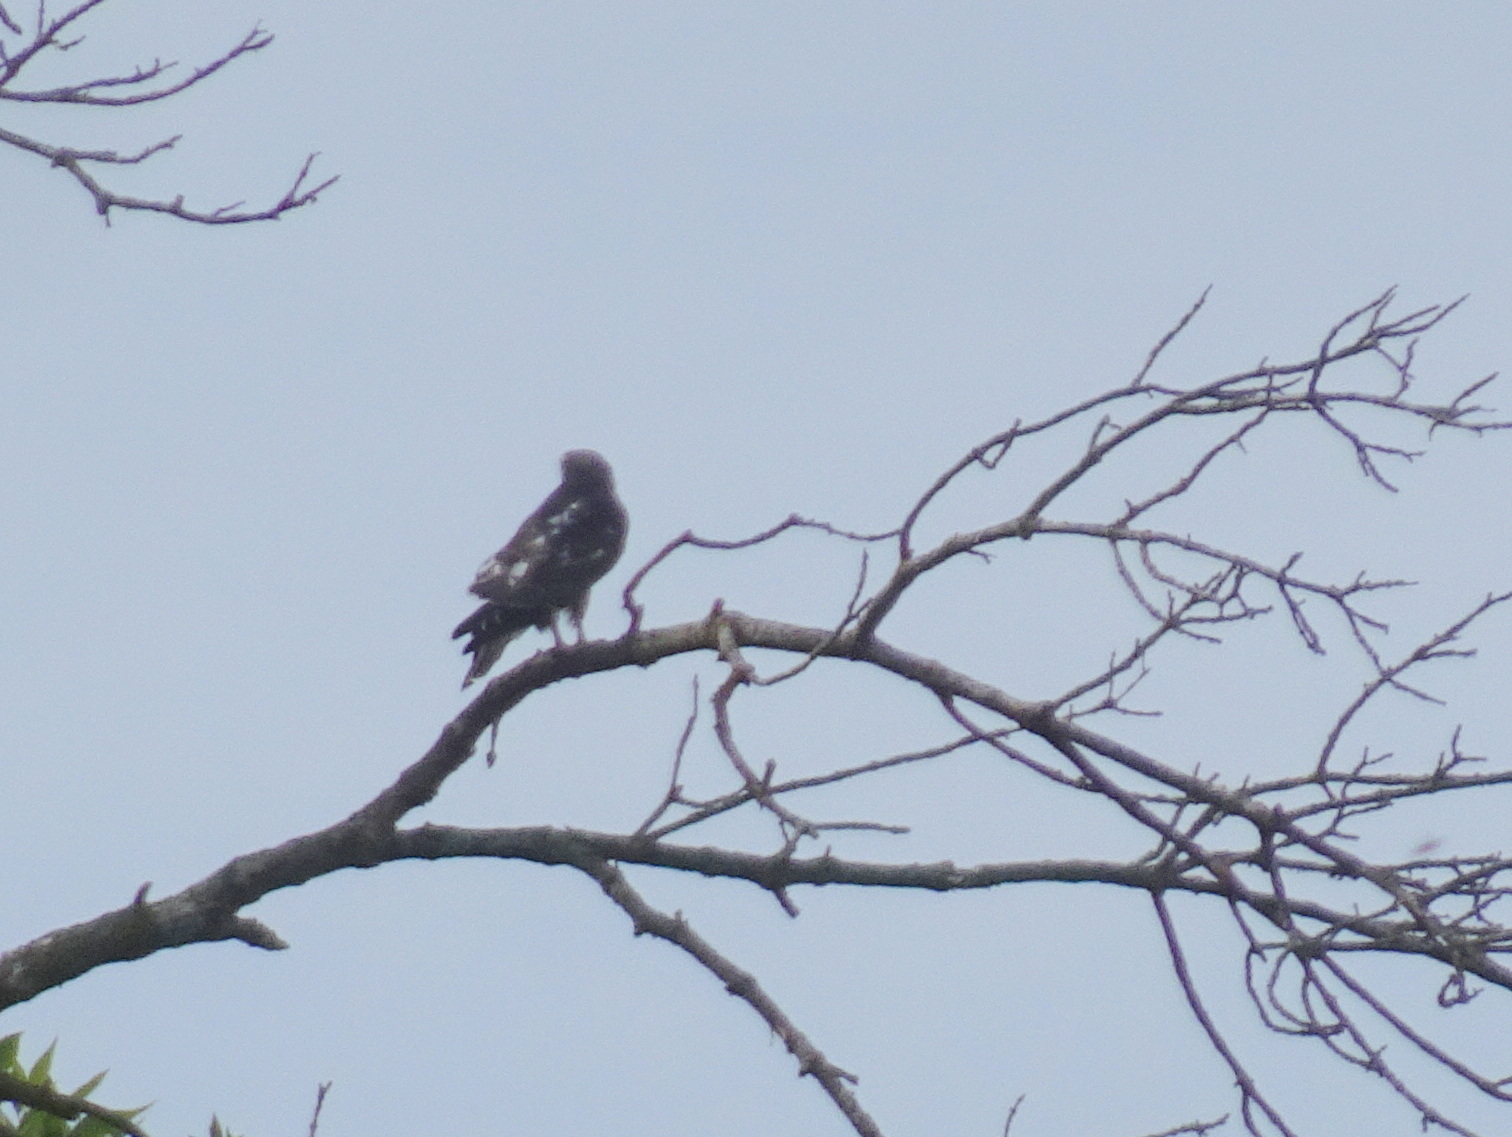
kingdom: Animalia
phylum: Chordata
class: Aves
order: Accipitriformes
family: Accipitridae
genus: Ictinia
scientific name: Ictinia mississippiensis
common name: Mississippi kite
